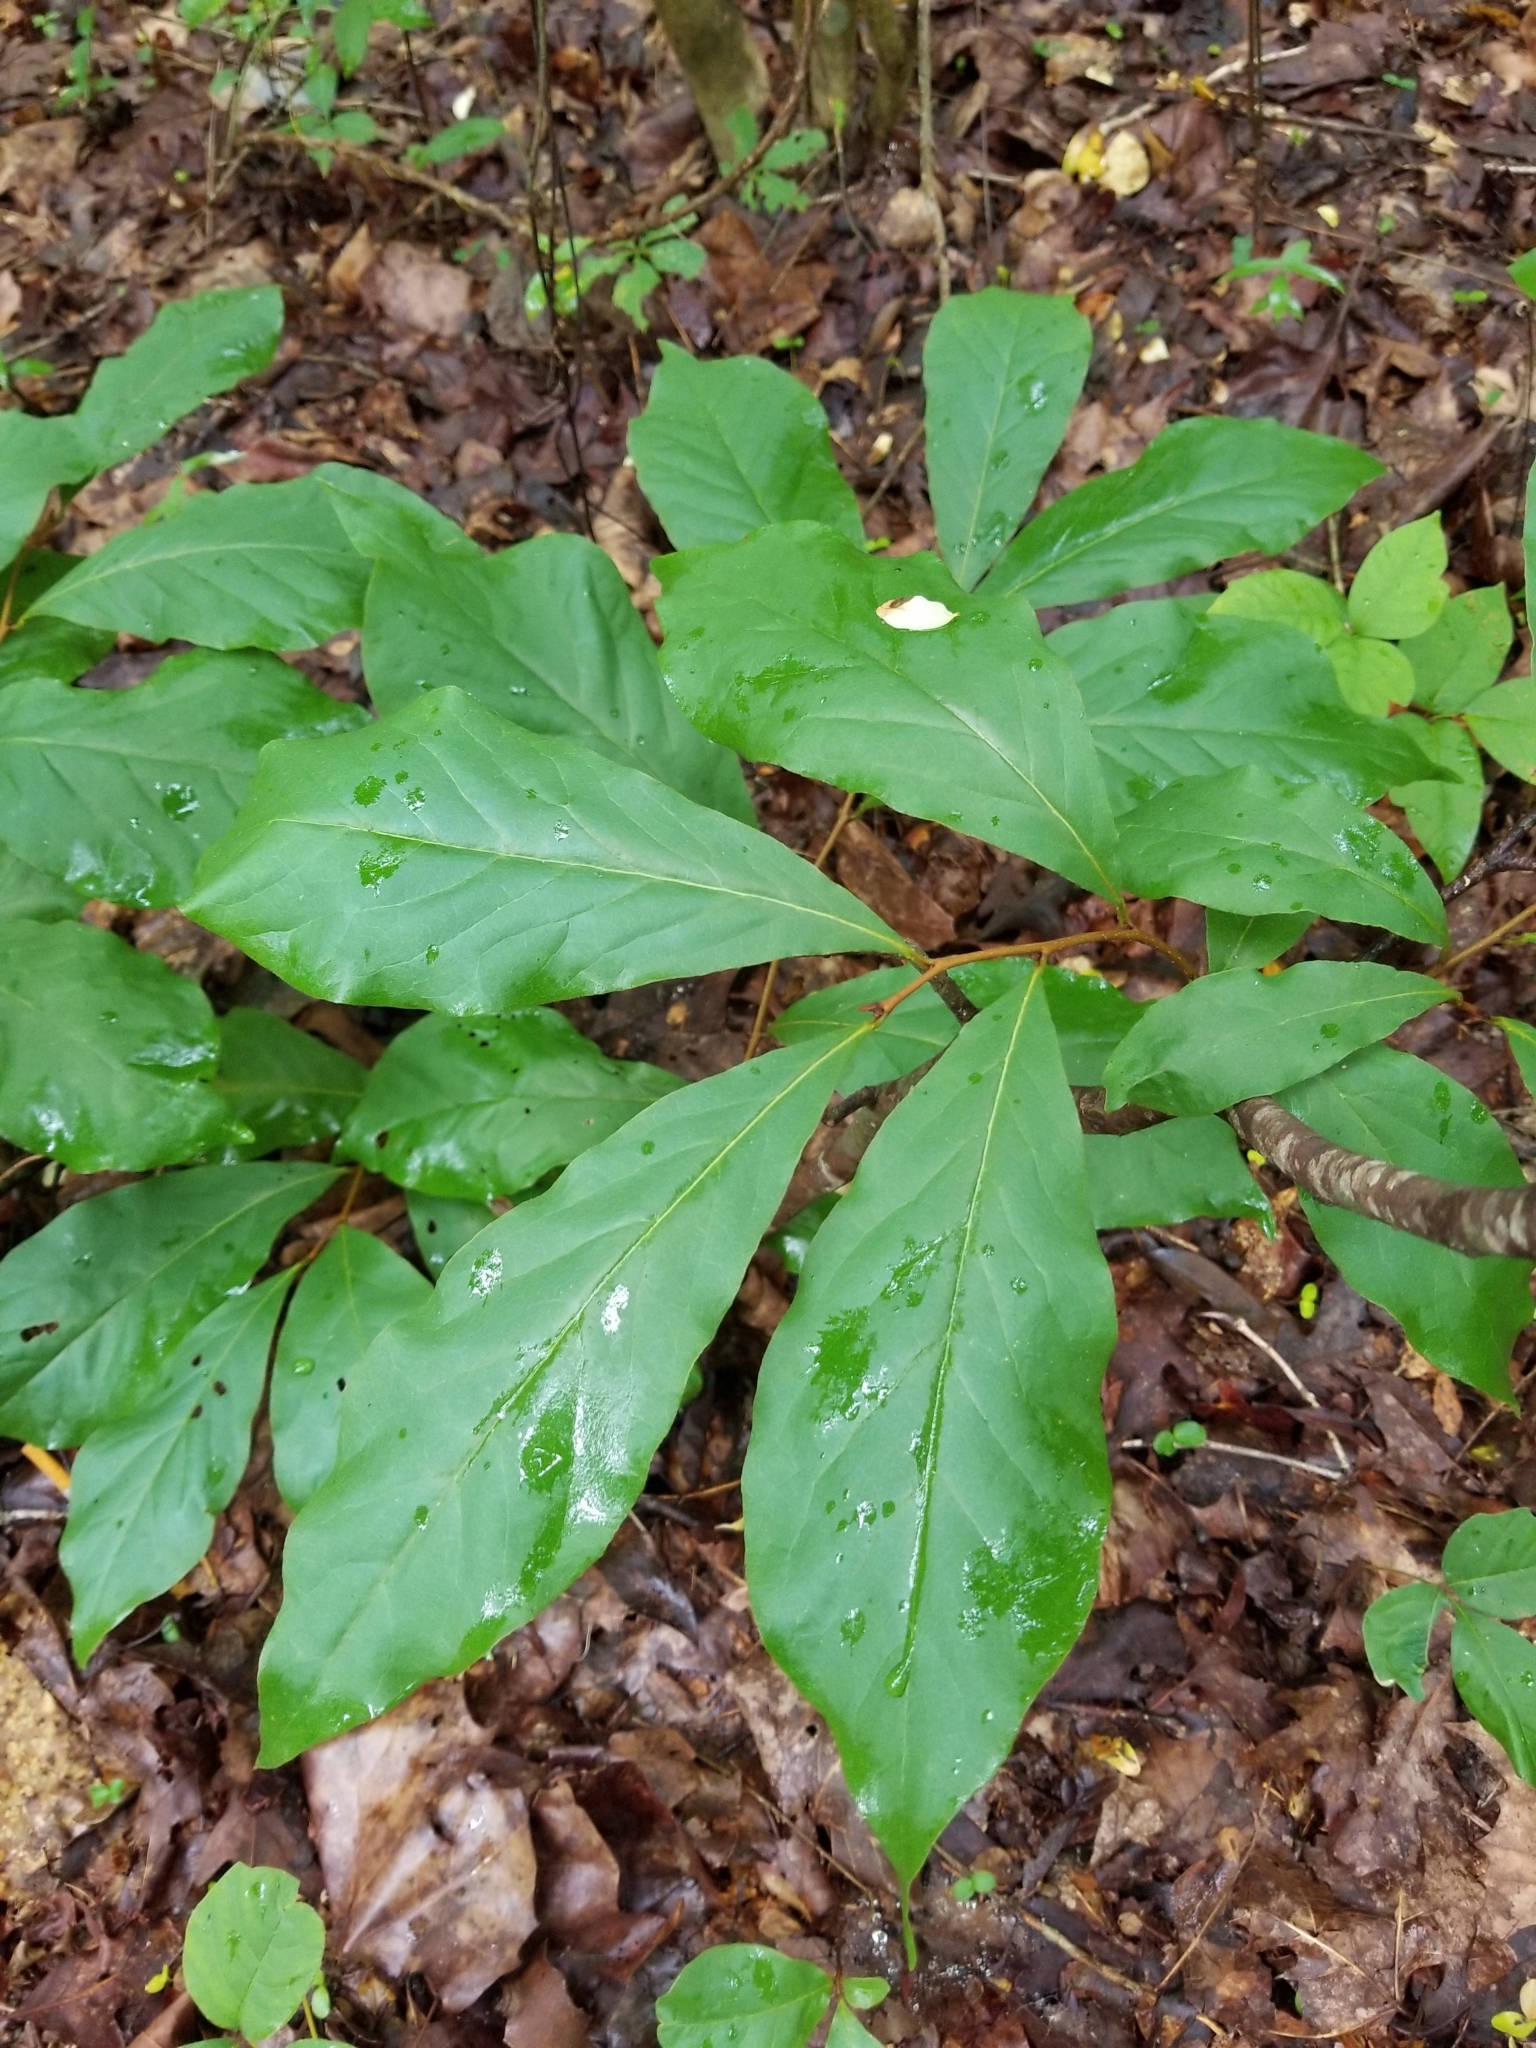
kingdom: Plantae
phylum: Tracheophyta
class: Magnoliopsida
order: Magnoliales
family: Annonaceae
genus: Asimina
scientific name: Asimina parviflora
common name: Dwarf pawpaw
